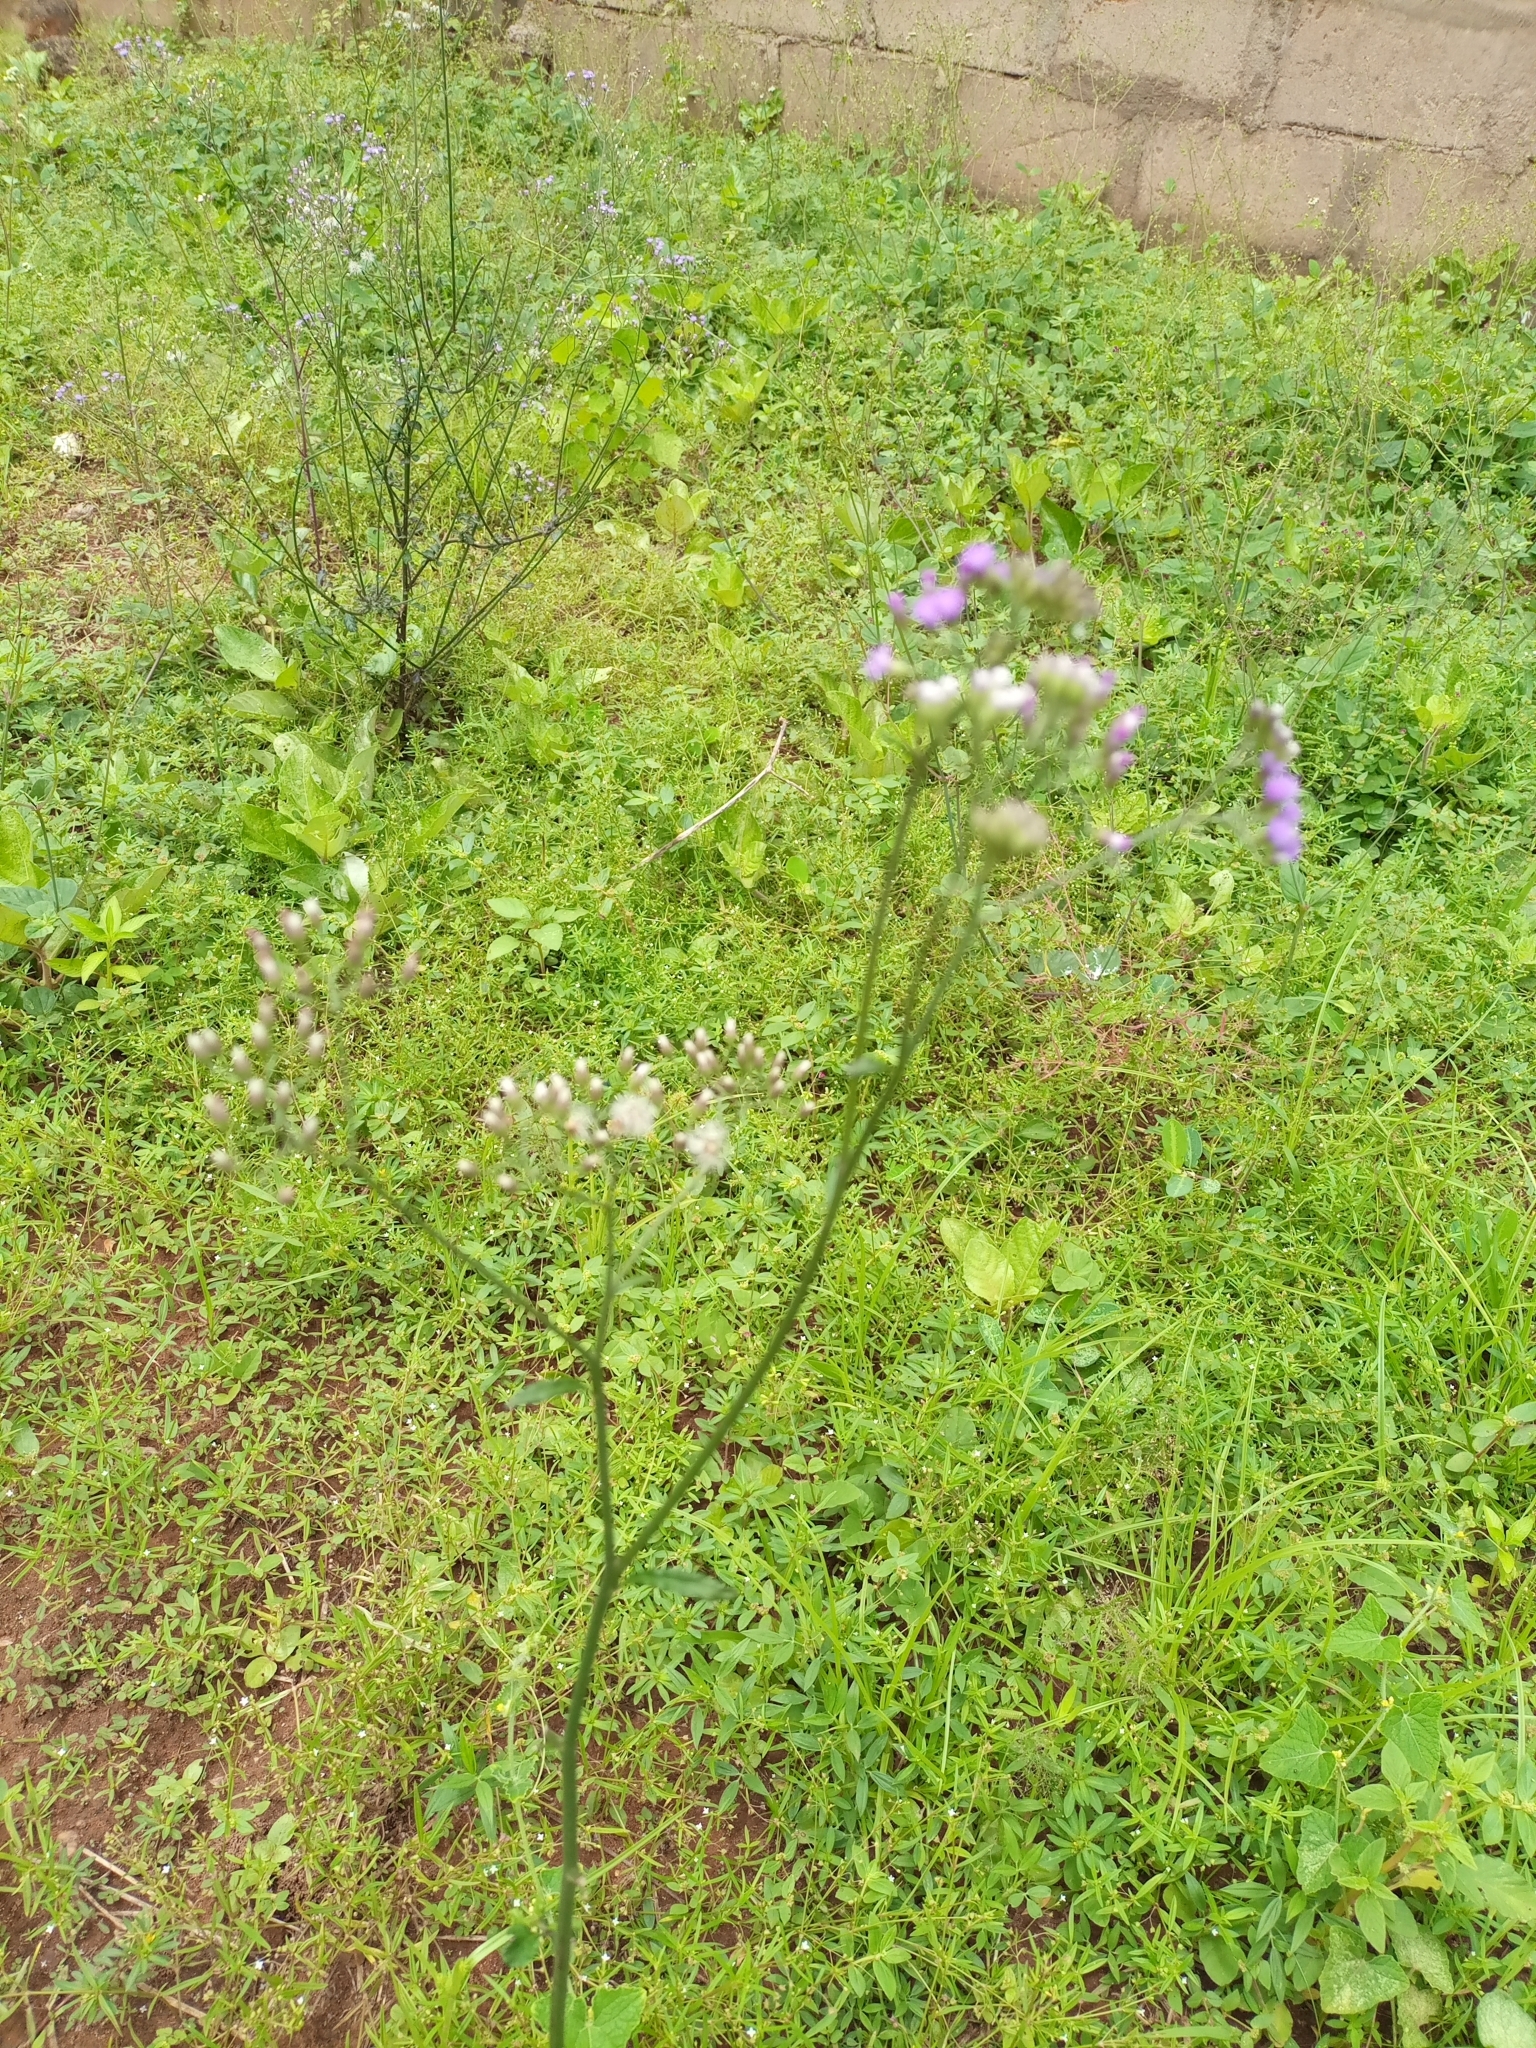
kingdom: Plantae
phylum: Tracheophyta
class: Magnoliopsida
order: Asterales
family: Asteraceae
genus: Cyanthillium
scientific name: Cyanthillium cinereum
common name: Little ironweed
